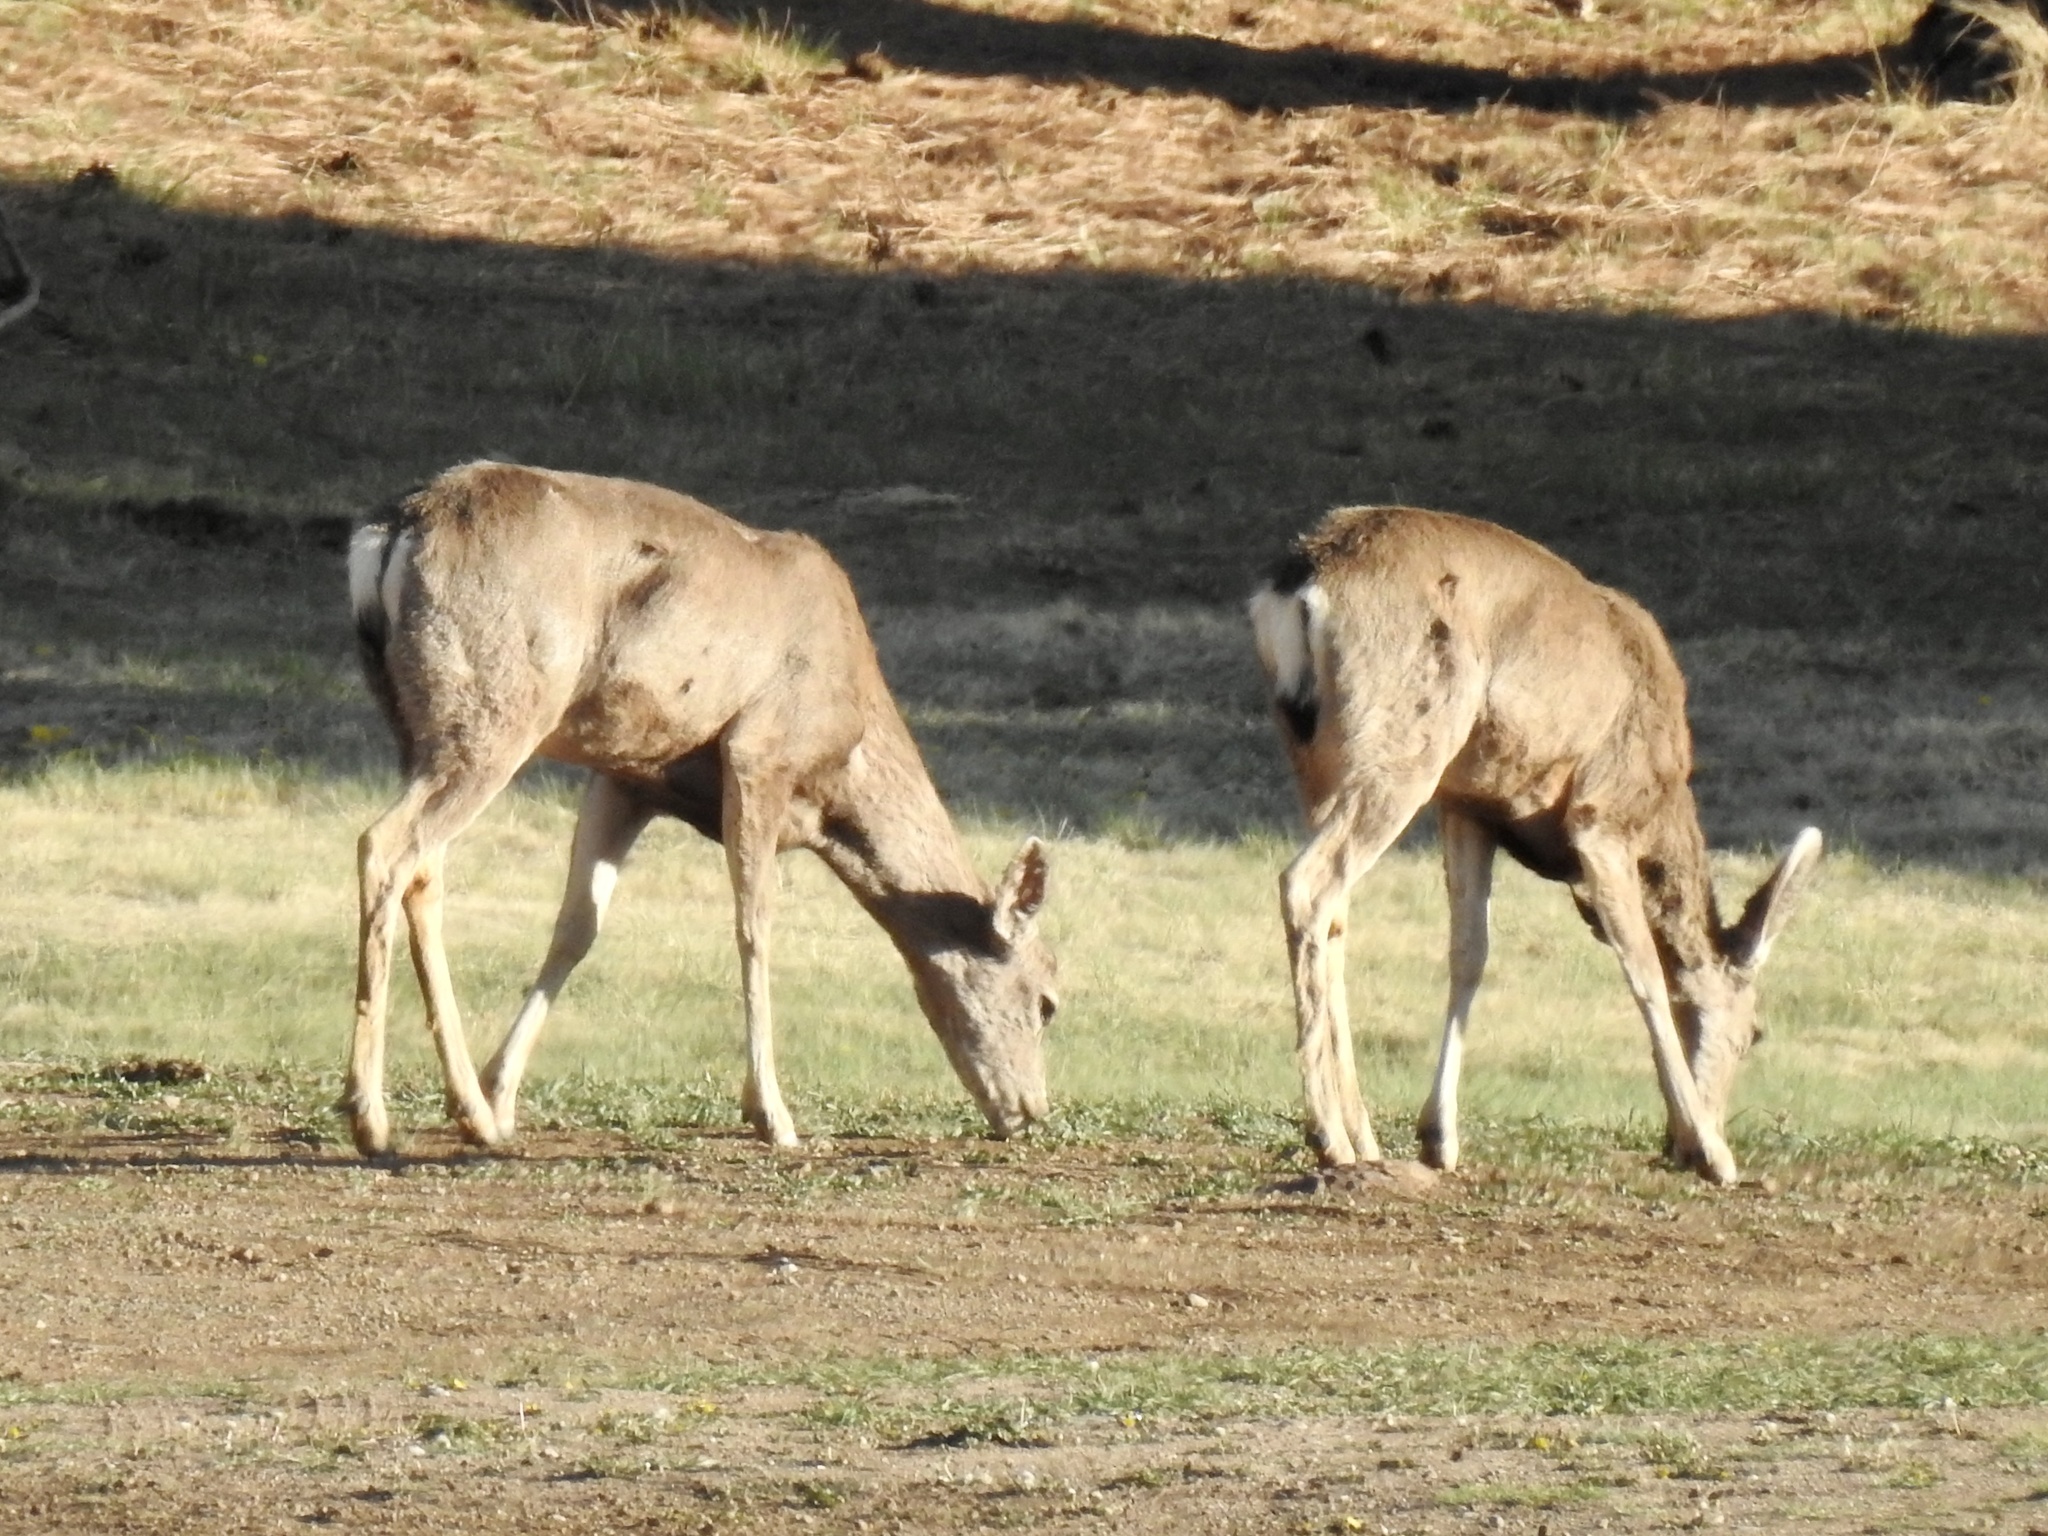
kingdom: Animalia
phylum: Chordata
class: Mammalia
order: Artiodactyla
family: Cervidae
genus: Odocoileus
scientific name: Odocoileus hemionus
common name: Mule deer
